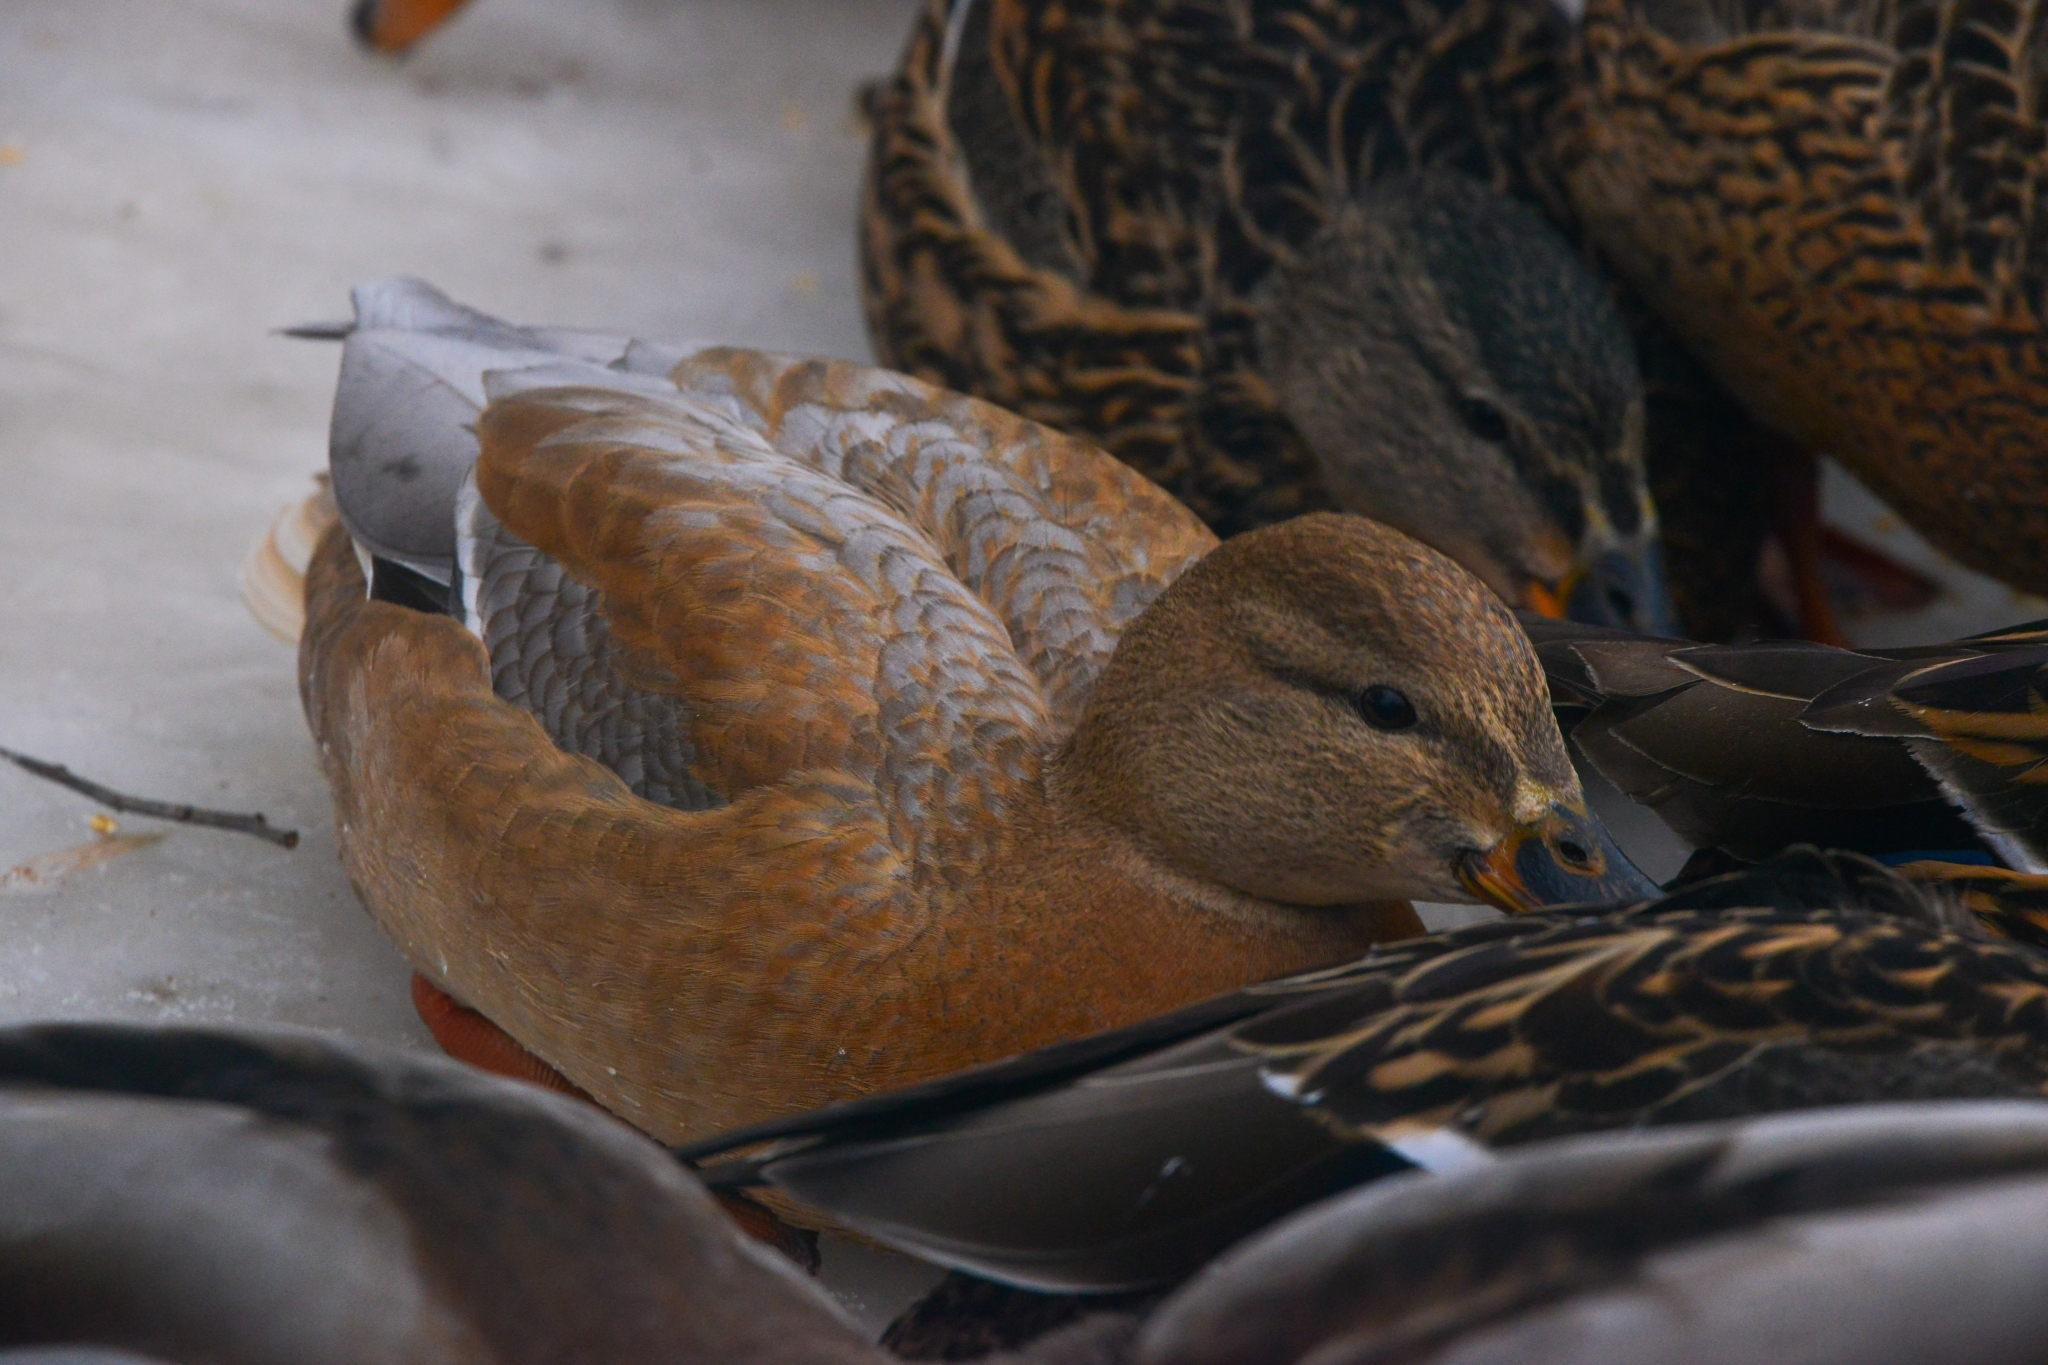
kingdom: Animalia
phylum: Chordata
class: Aves
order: Anseriformes
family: Anatidae
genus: Anas
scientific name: Anas platyrhynchos
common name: Mallard
